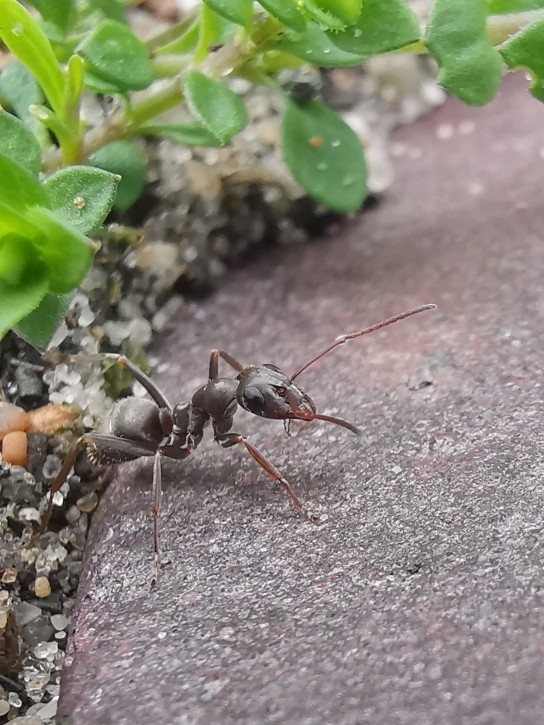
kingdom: Animalia
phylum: Arthropoda
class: Insecta
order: Hymenoptera
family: Formicidae
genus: Formica
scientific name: Formica cinerea
